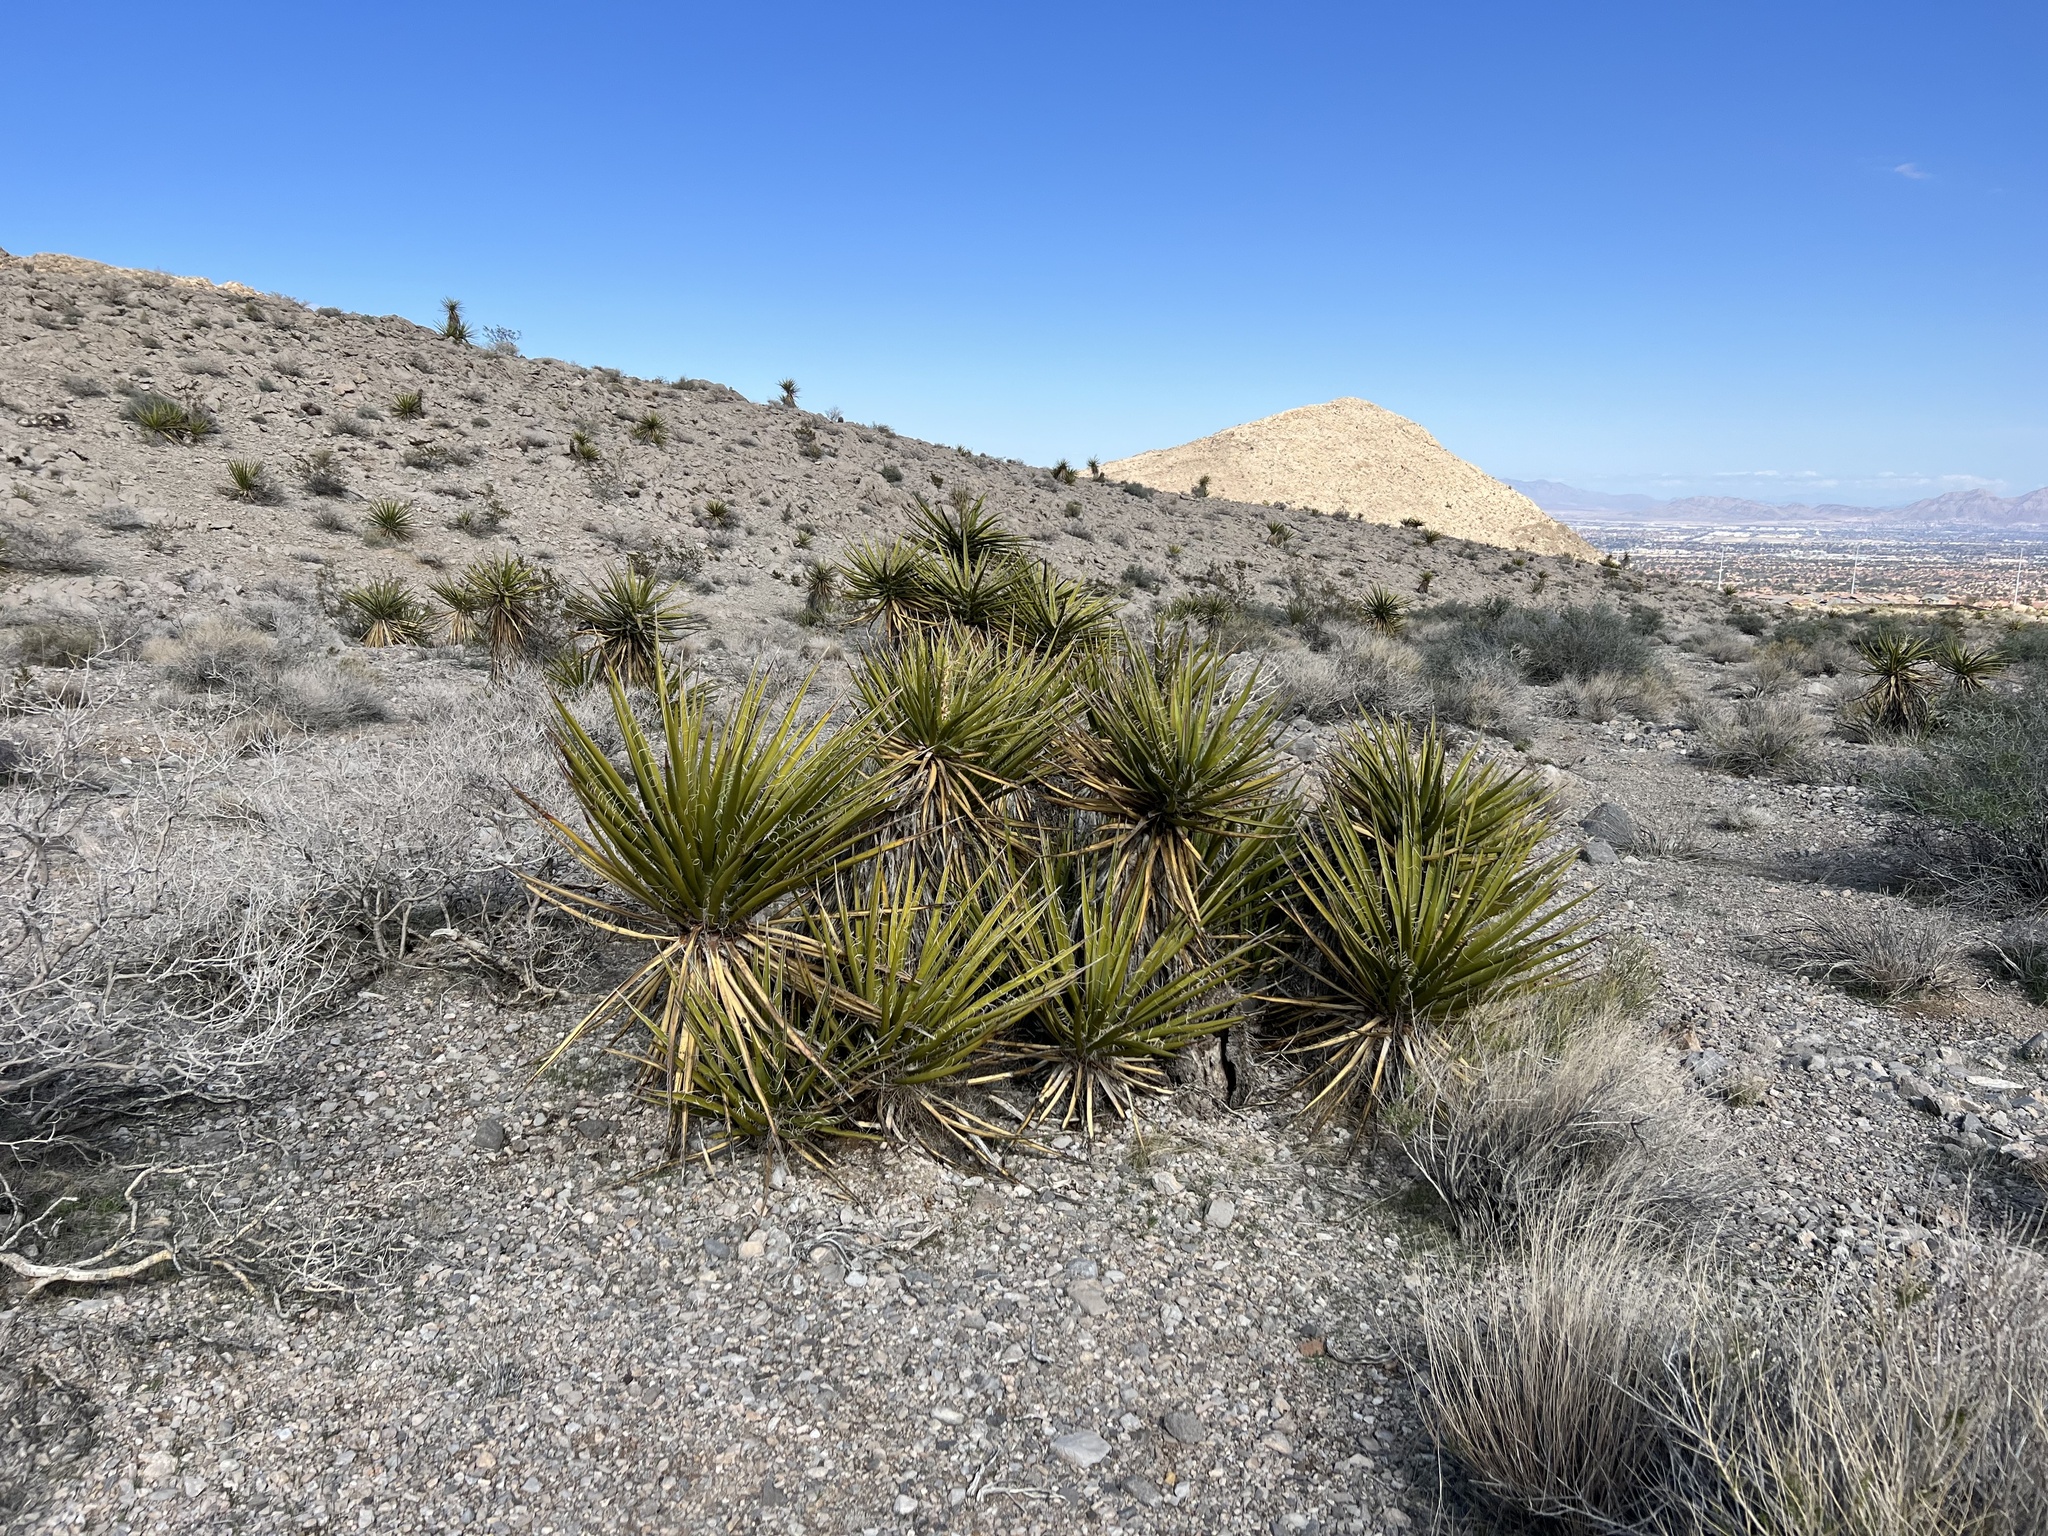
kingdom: Plantae
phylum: Tracheophyta
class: Liliopsida
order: Asparagales
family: Asparagaceae
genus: Yucca
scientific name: Yucca schidigera
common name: Mojave yucca
